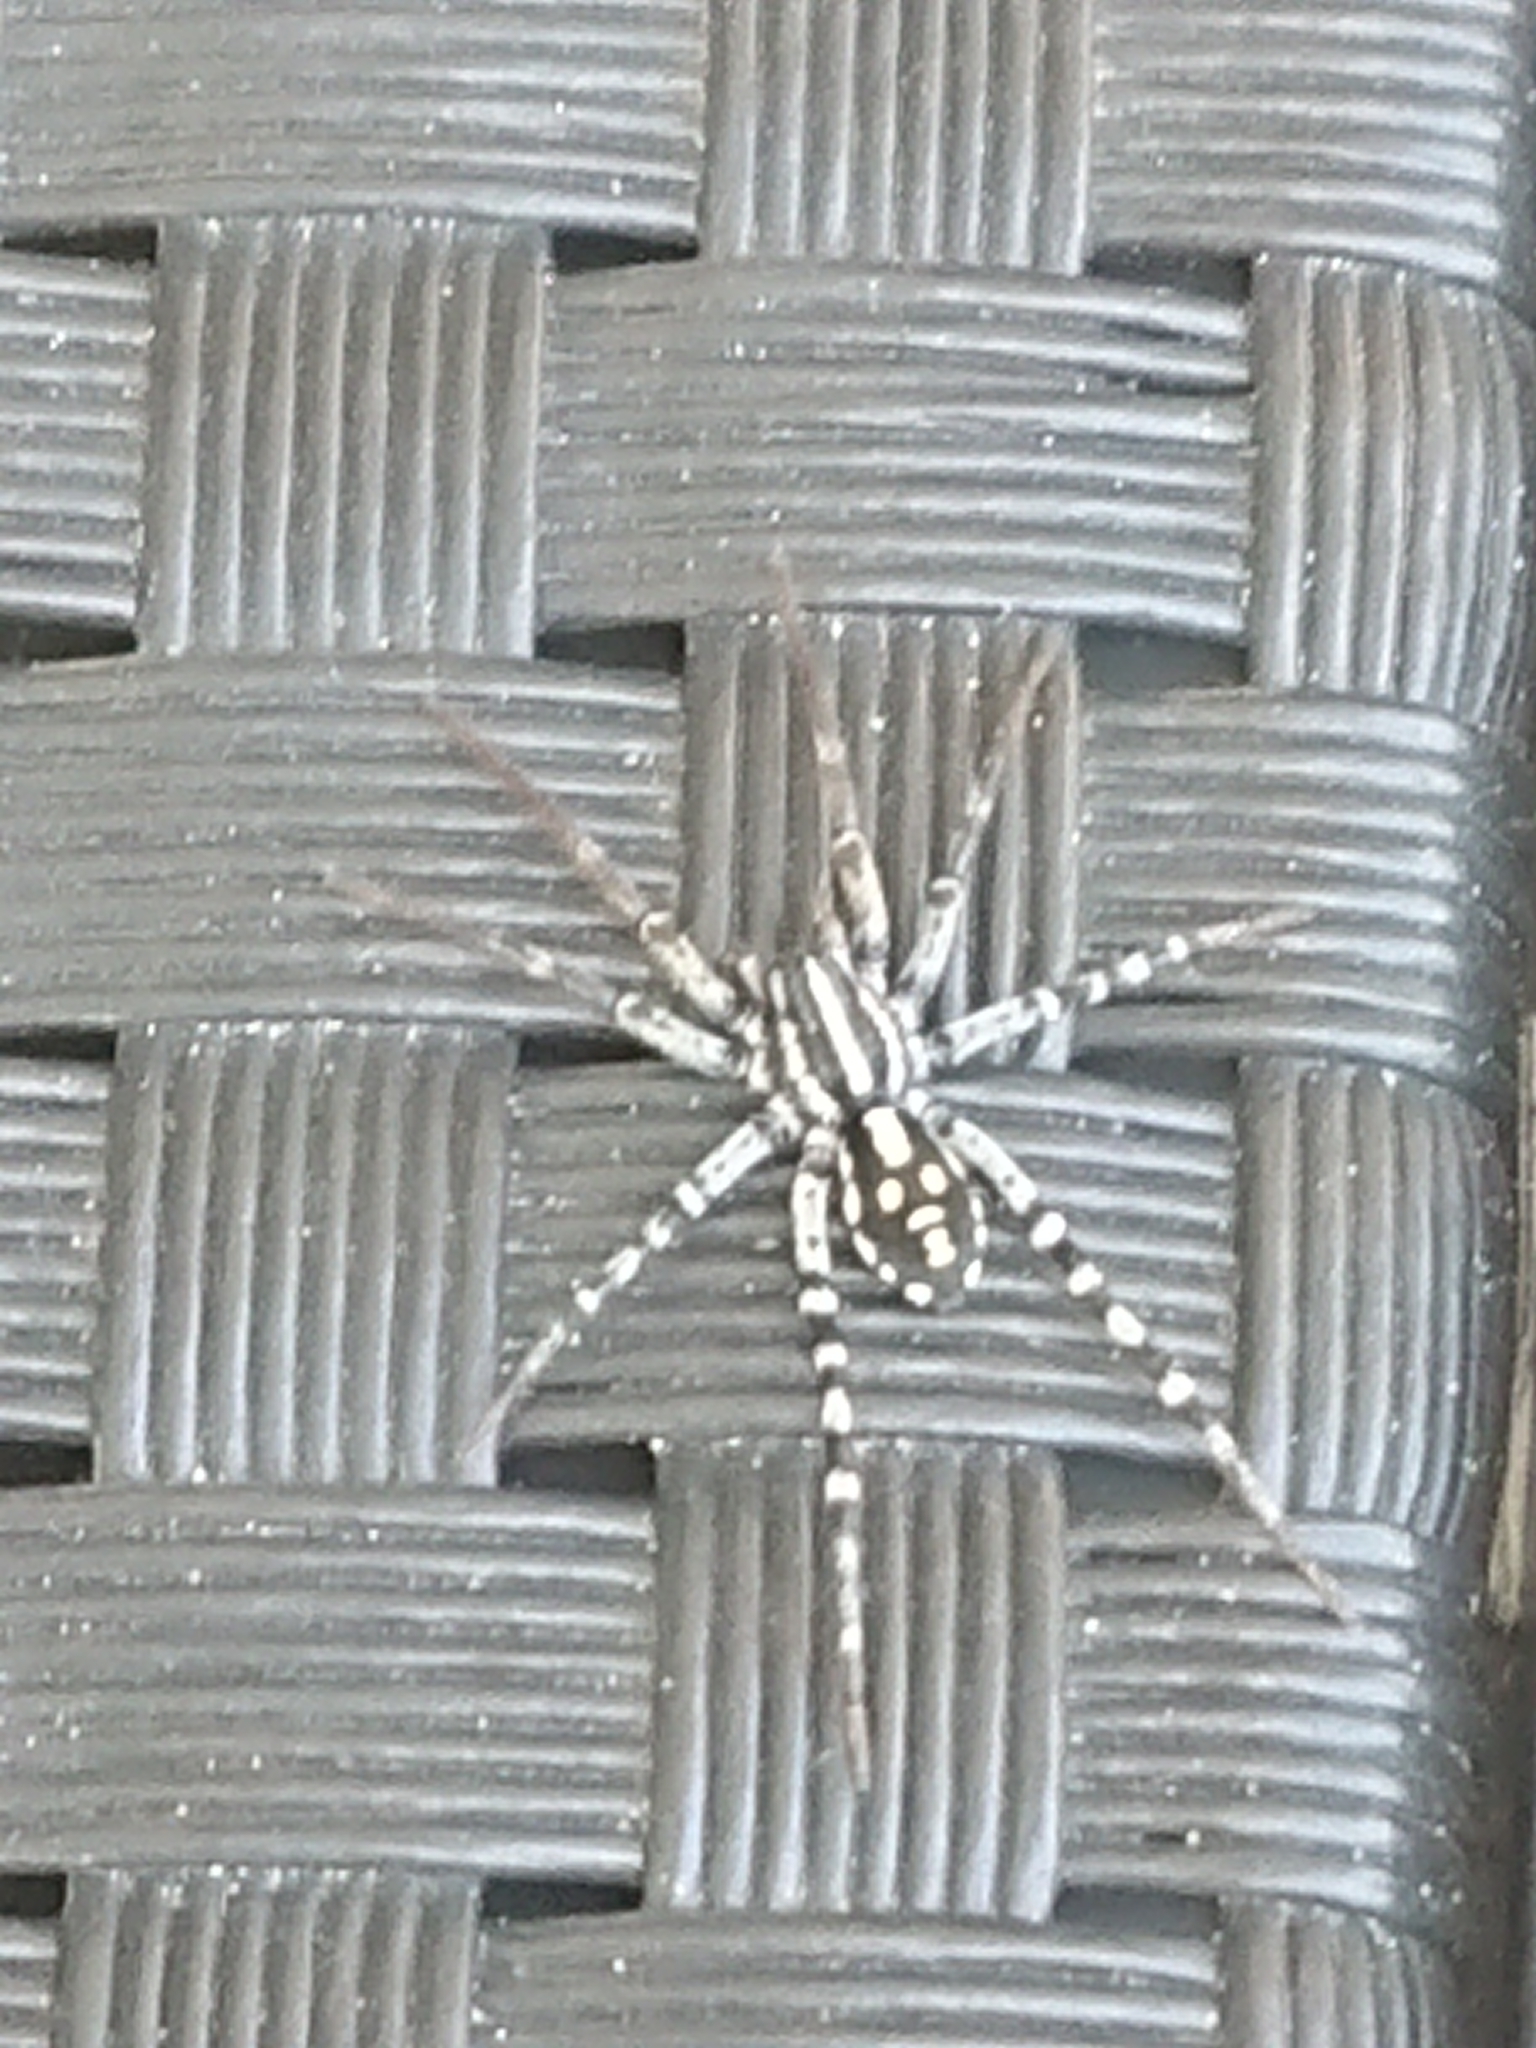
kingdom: Animalia
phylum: Arthropoda
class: Arachnida
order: Araneae
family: Corinnidae
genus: Nyssus
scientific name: Nyssus coloripes
